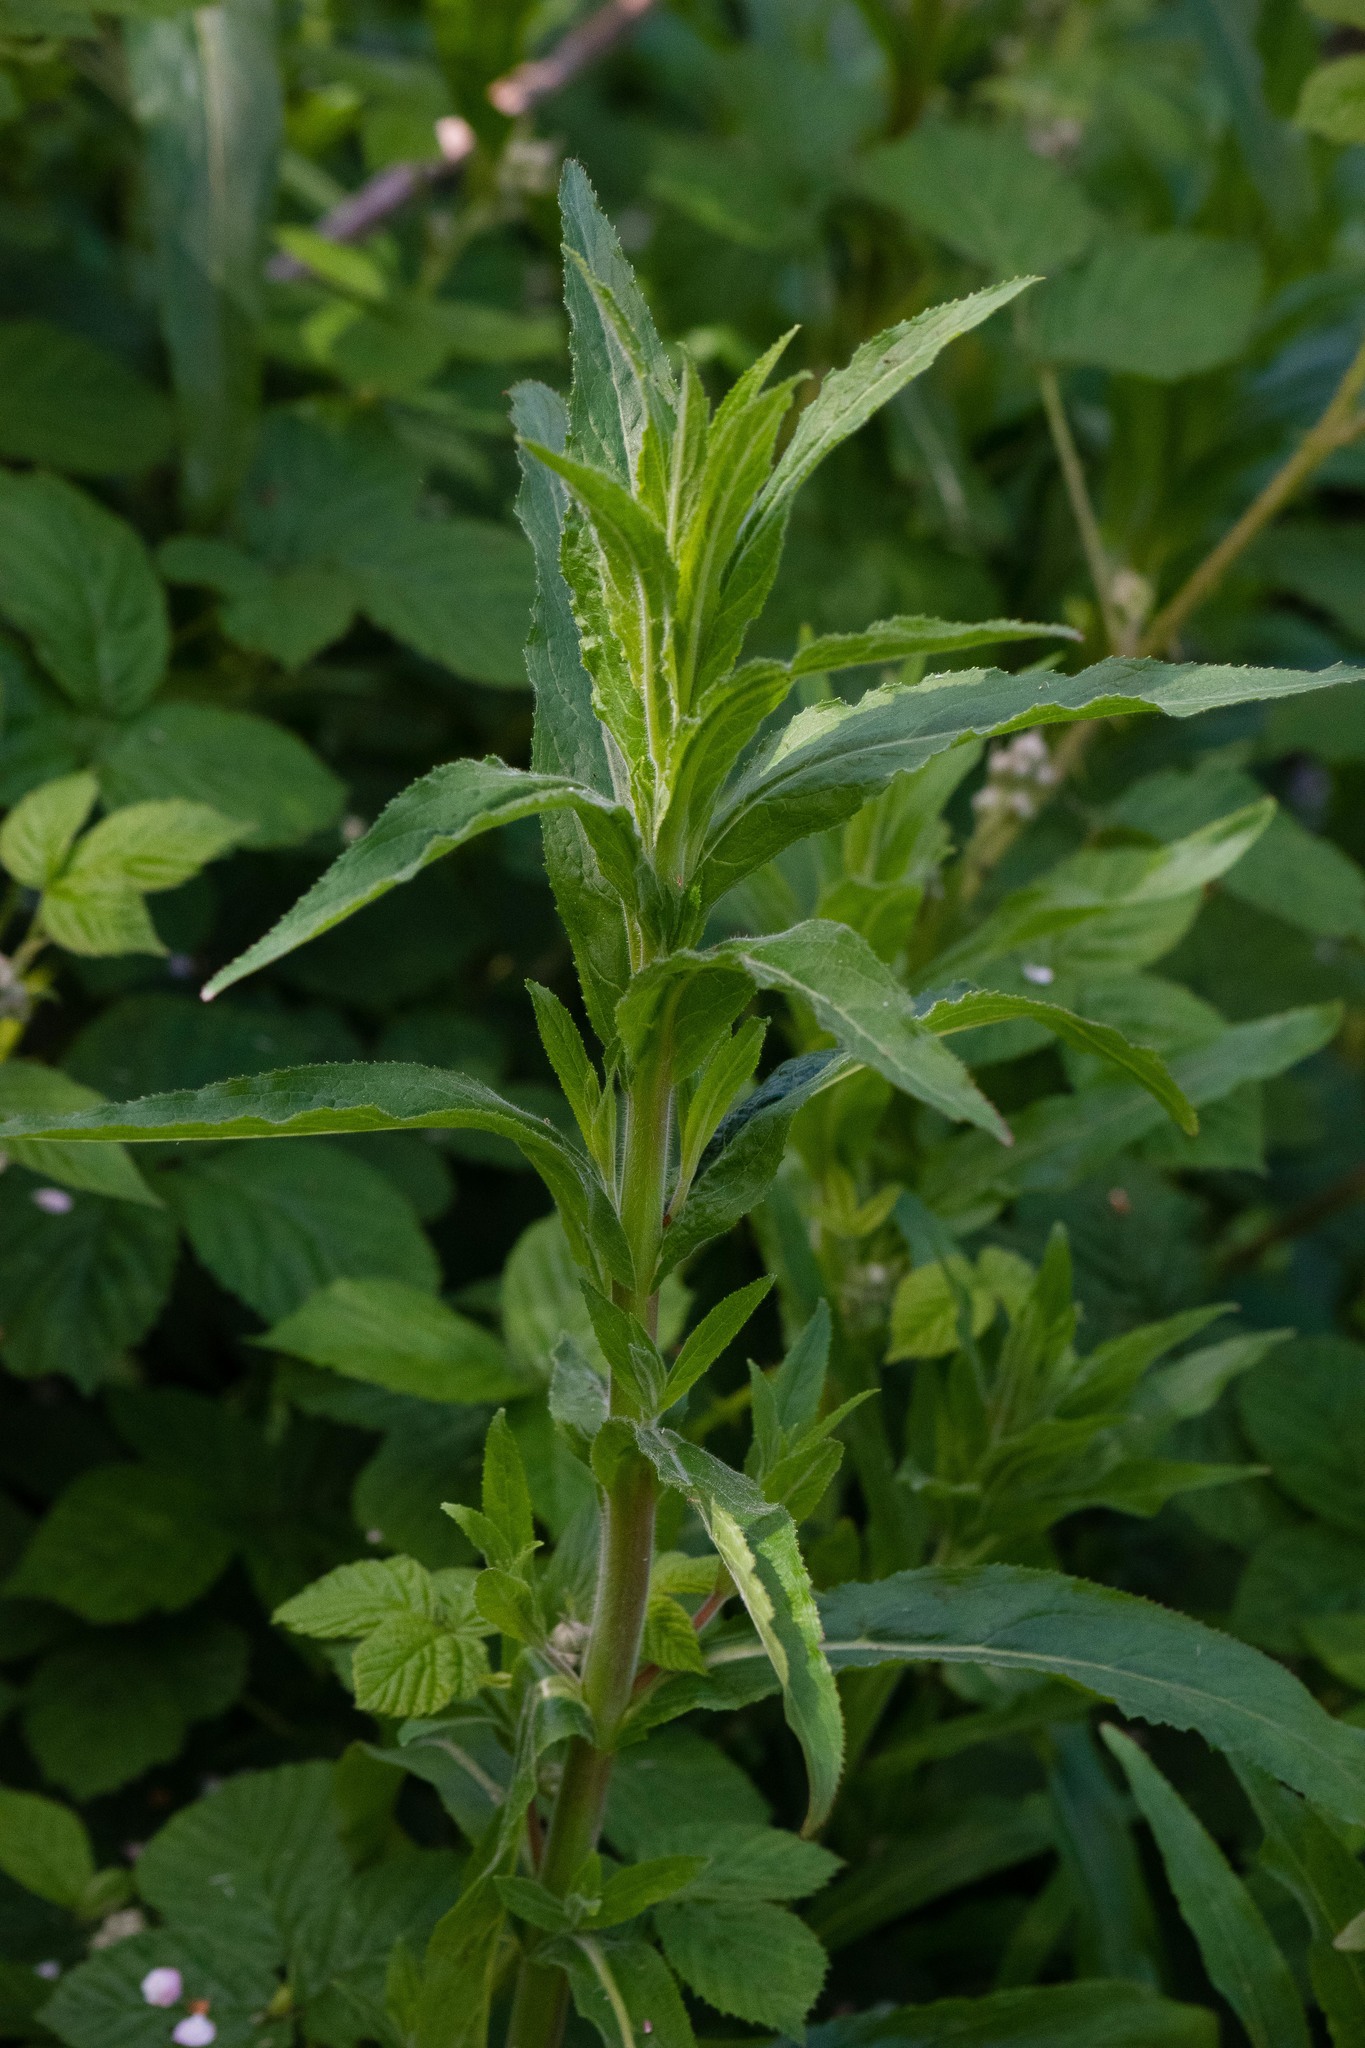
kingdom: Plantae
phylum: Tracheophyta
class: Magnoliopsida
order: Myrtales
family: Onagraceae
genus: Epilobium
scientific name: Epilobium hirsutum
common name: Great willowherb
